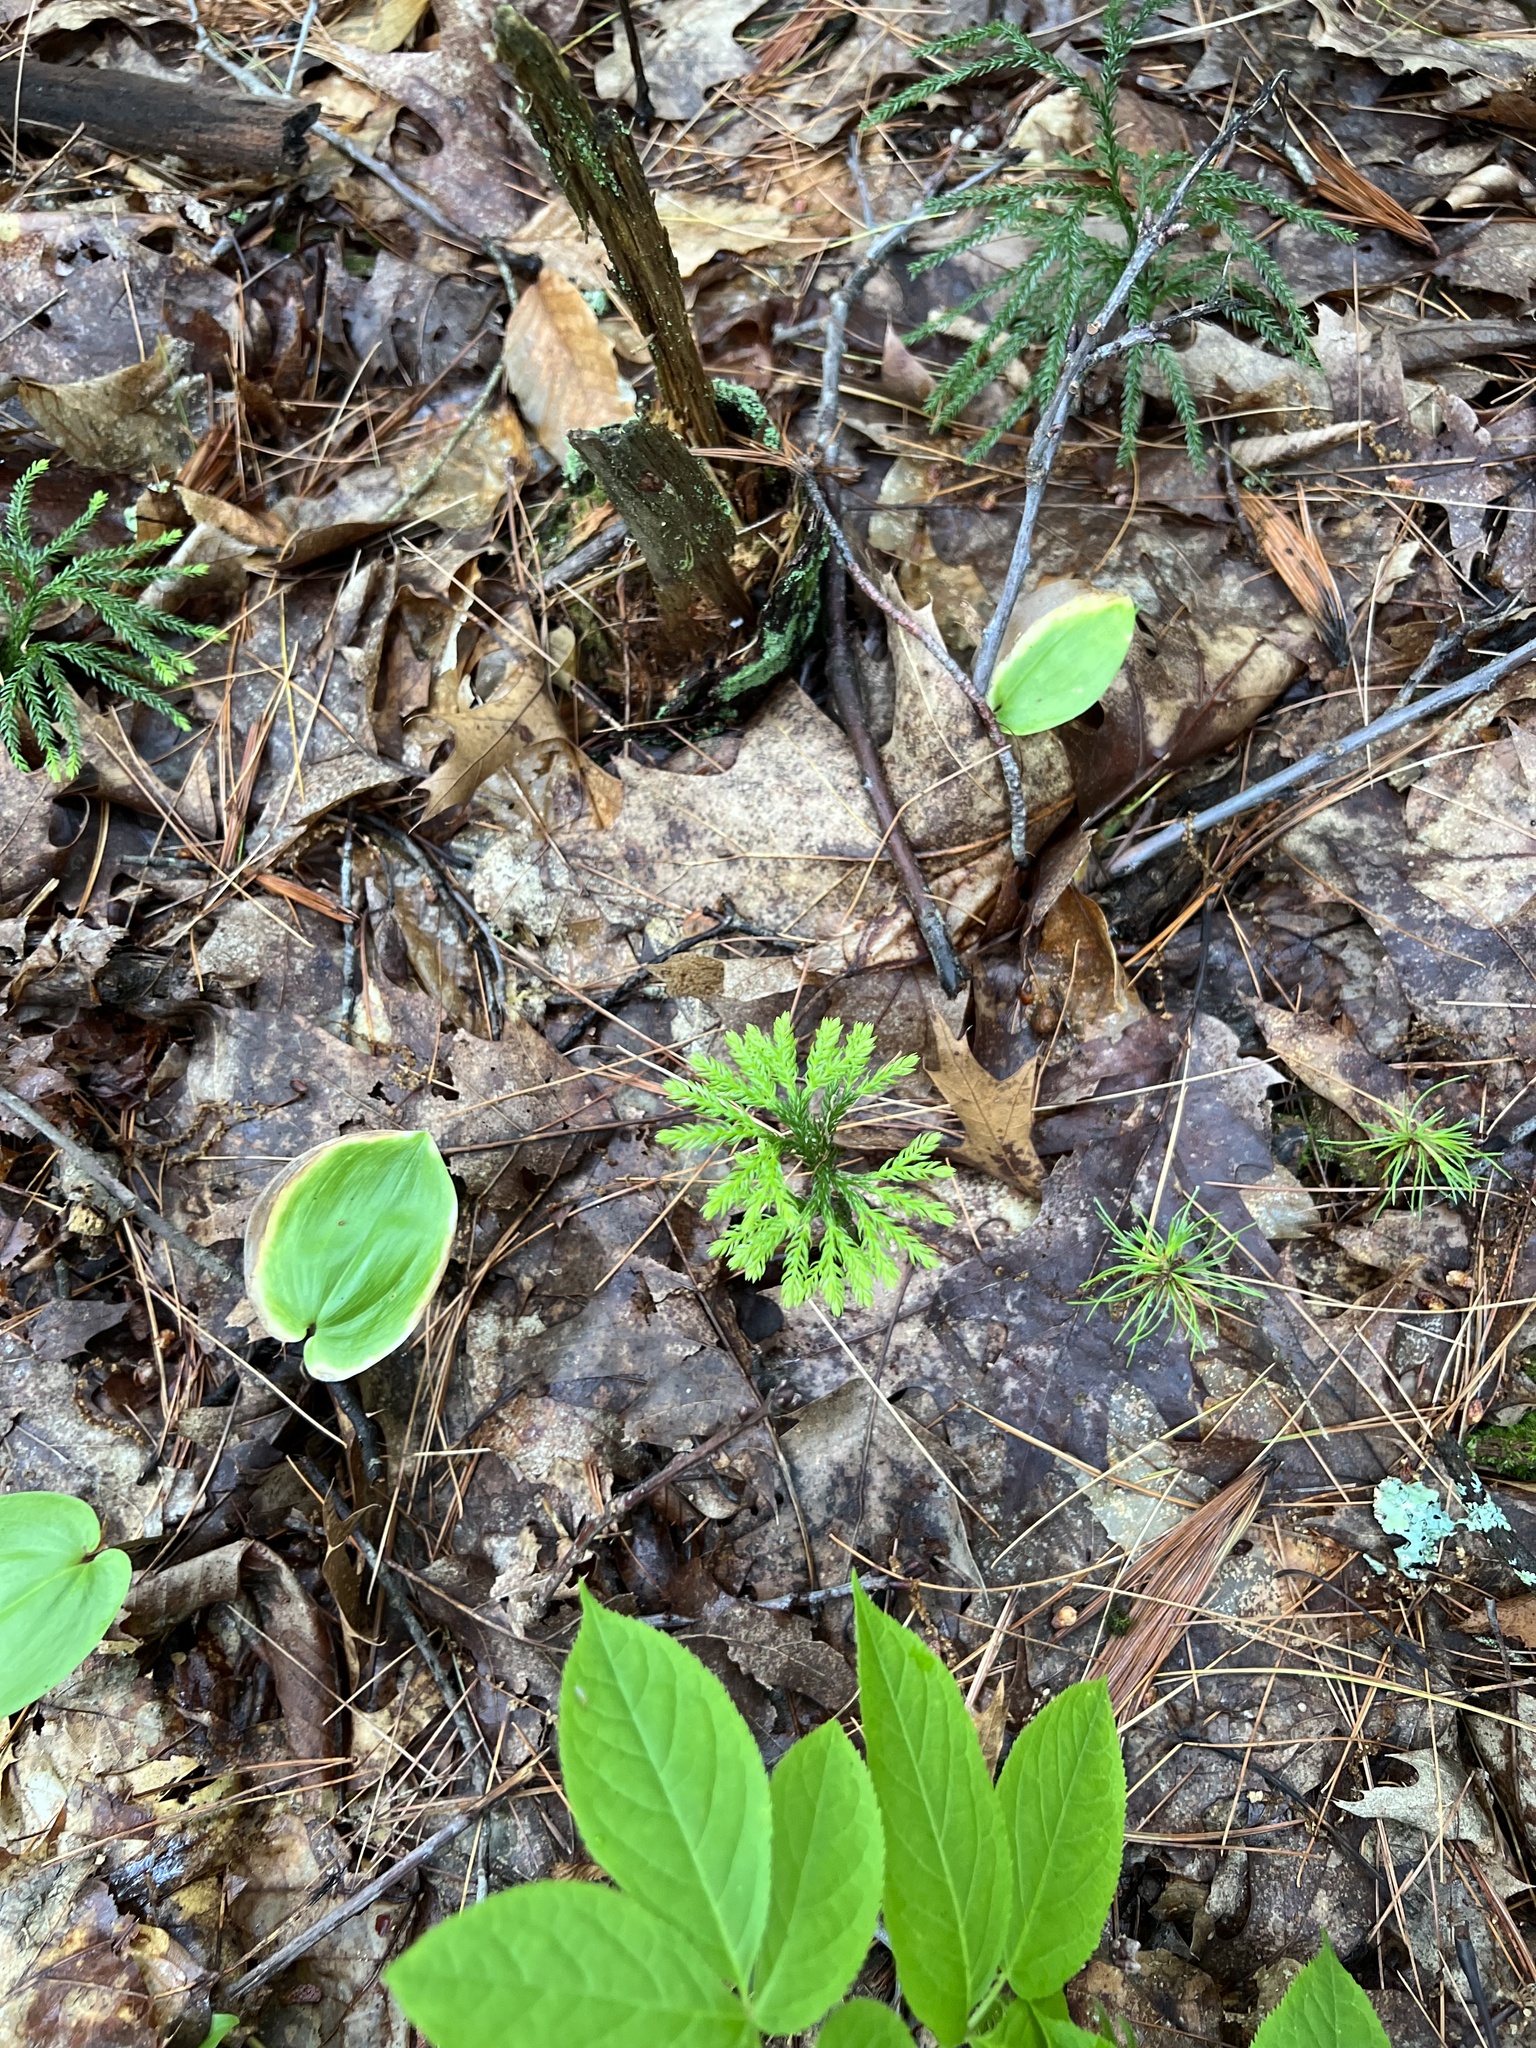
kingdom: Plantae
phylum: Tracheophyta
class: Lycopodiopsida
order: Lycopodiales
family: Lycopodiaceae
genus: Dendrolycopodium
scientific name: Dendrolycopodium obscurum
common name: Common ground-pine
